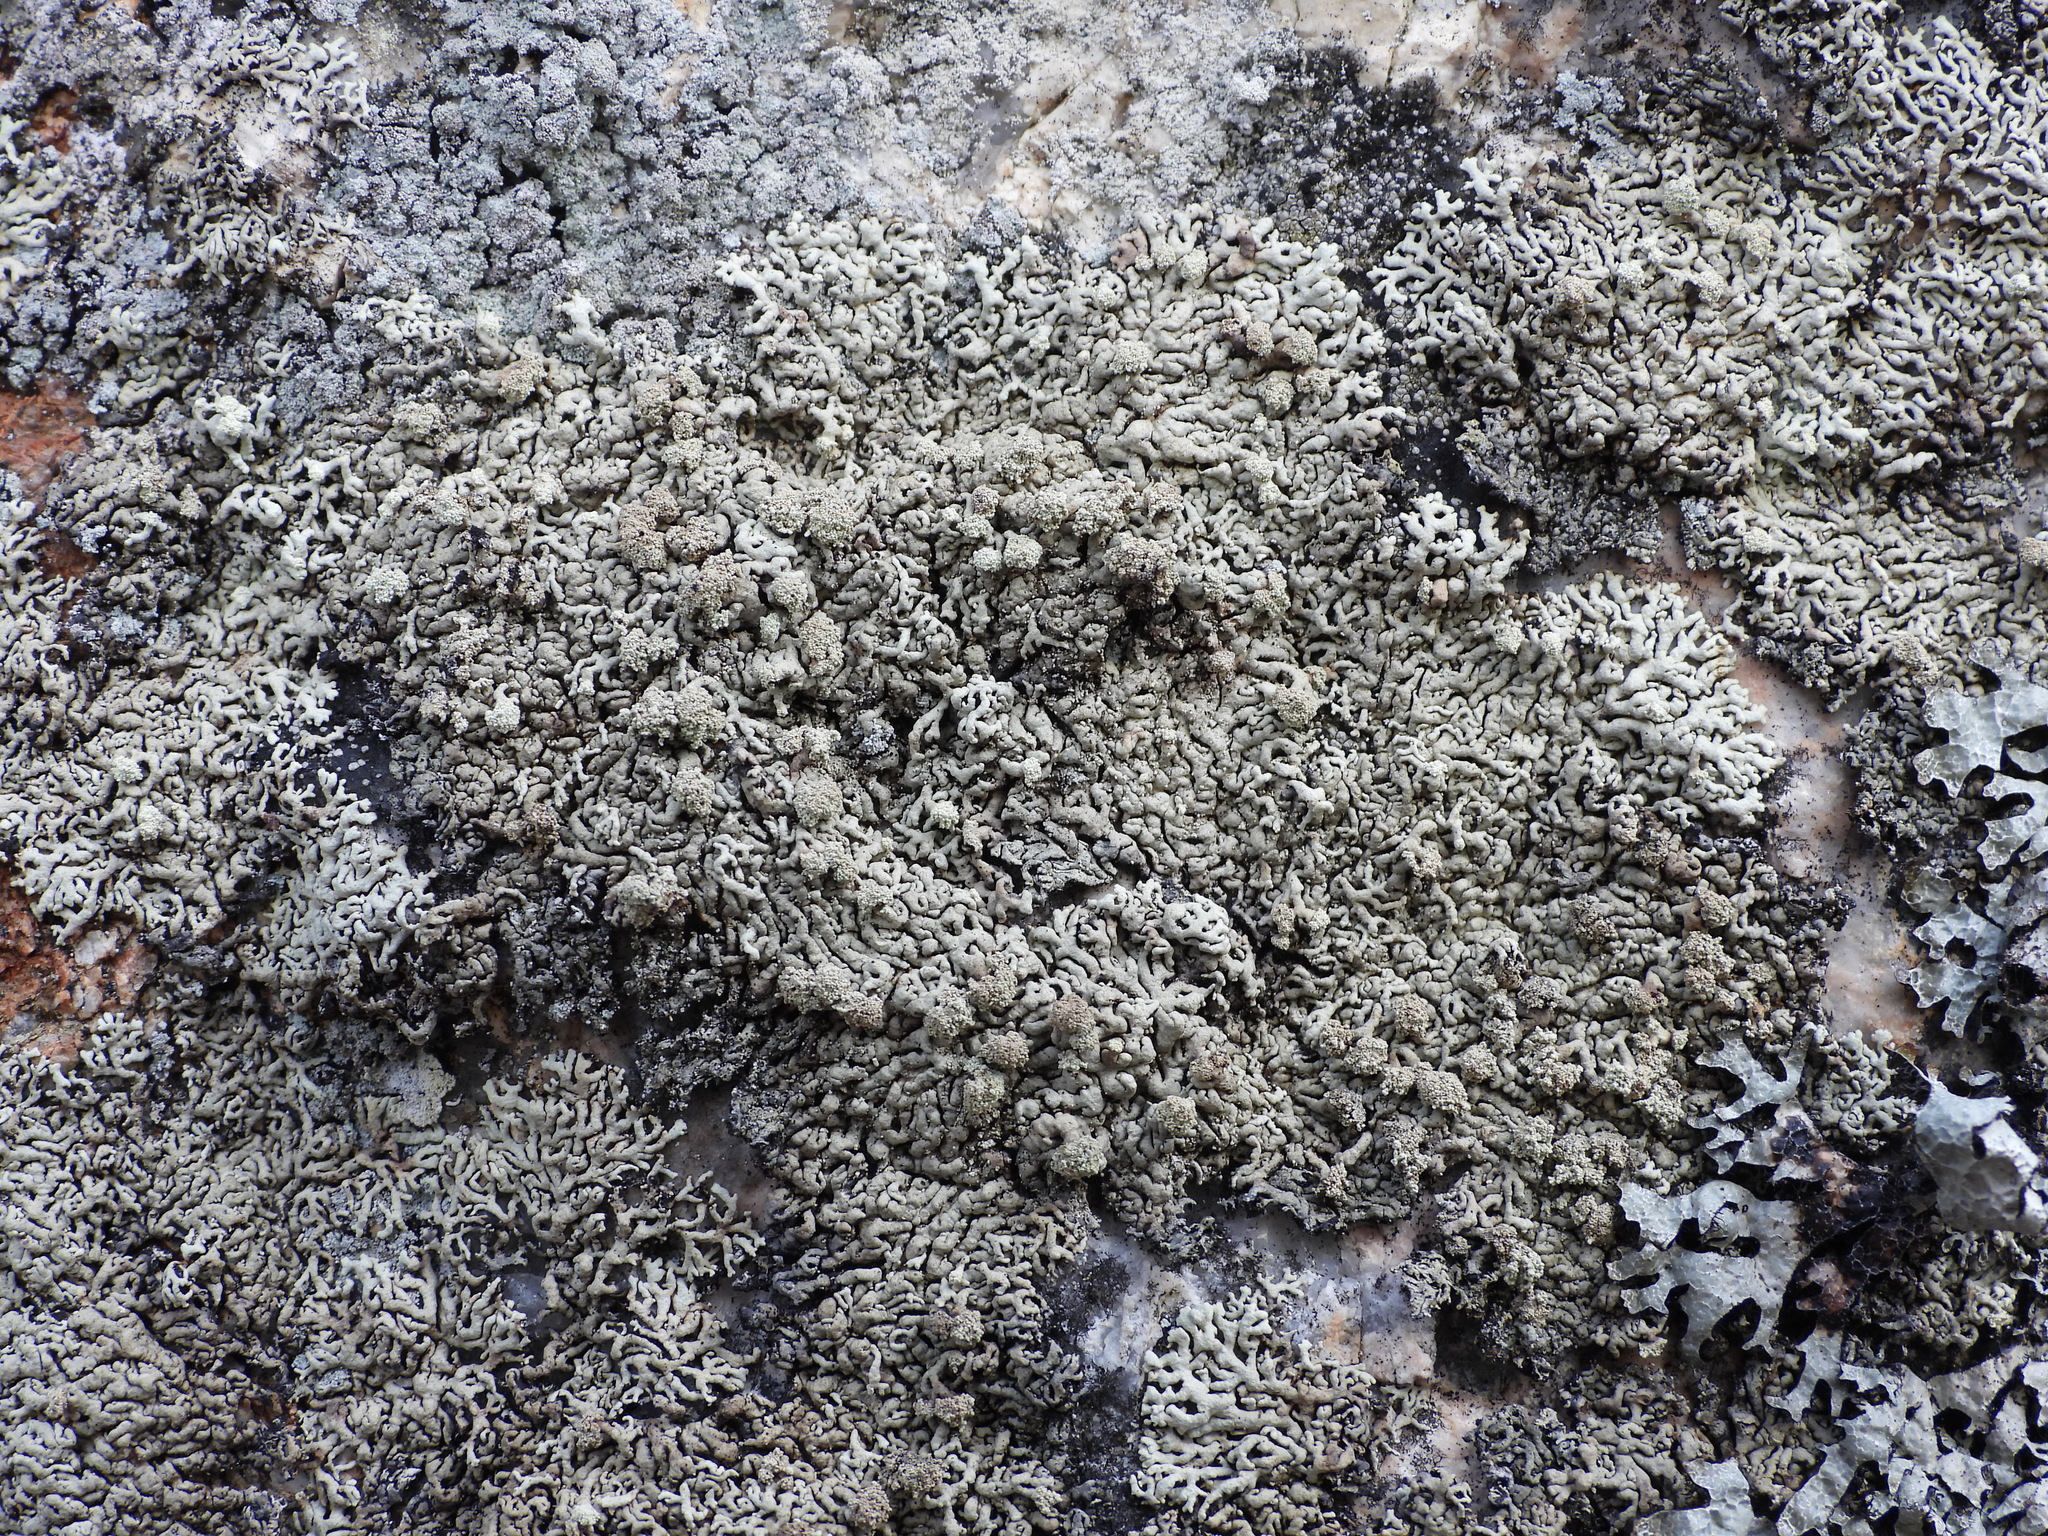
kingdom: Fungi
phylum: Ascomycota
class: Lecanoromycetes
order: Lecanorales
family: Parmeliaceae
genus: Arctoparmelia
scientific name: Arctoparmelia incurva
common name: Bent ring lichen
